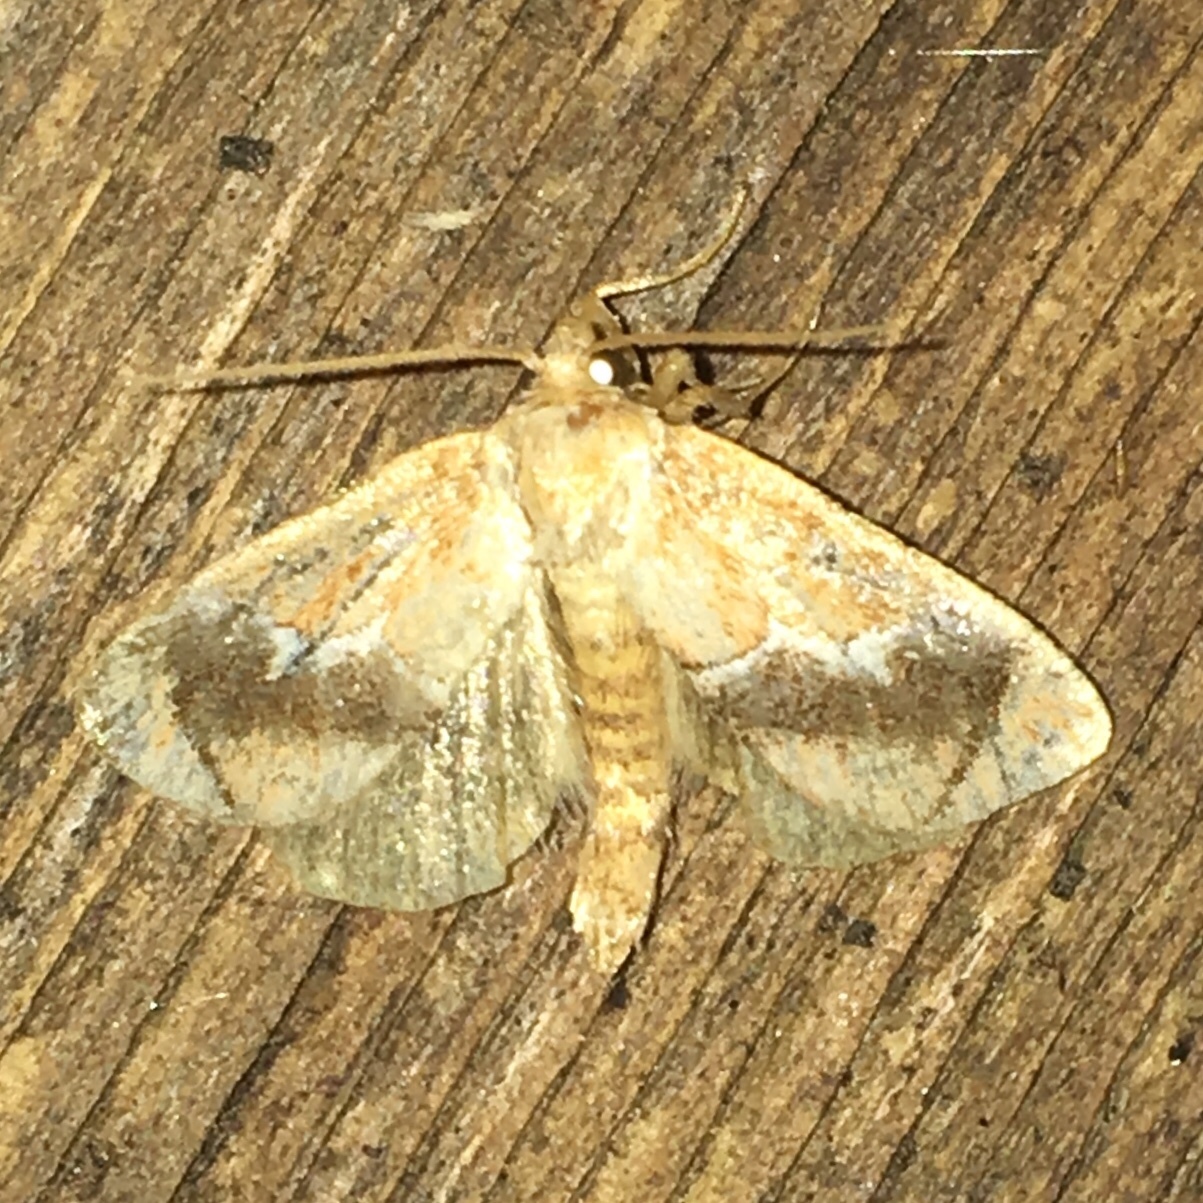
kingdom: Animalia
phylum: Arthropoda
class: Insecta
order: Lepidoptera
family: Limacodidae
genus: Lithacodes
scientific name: Lithacodes fasciola
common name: Yellow-shouldered slug moth
